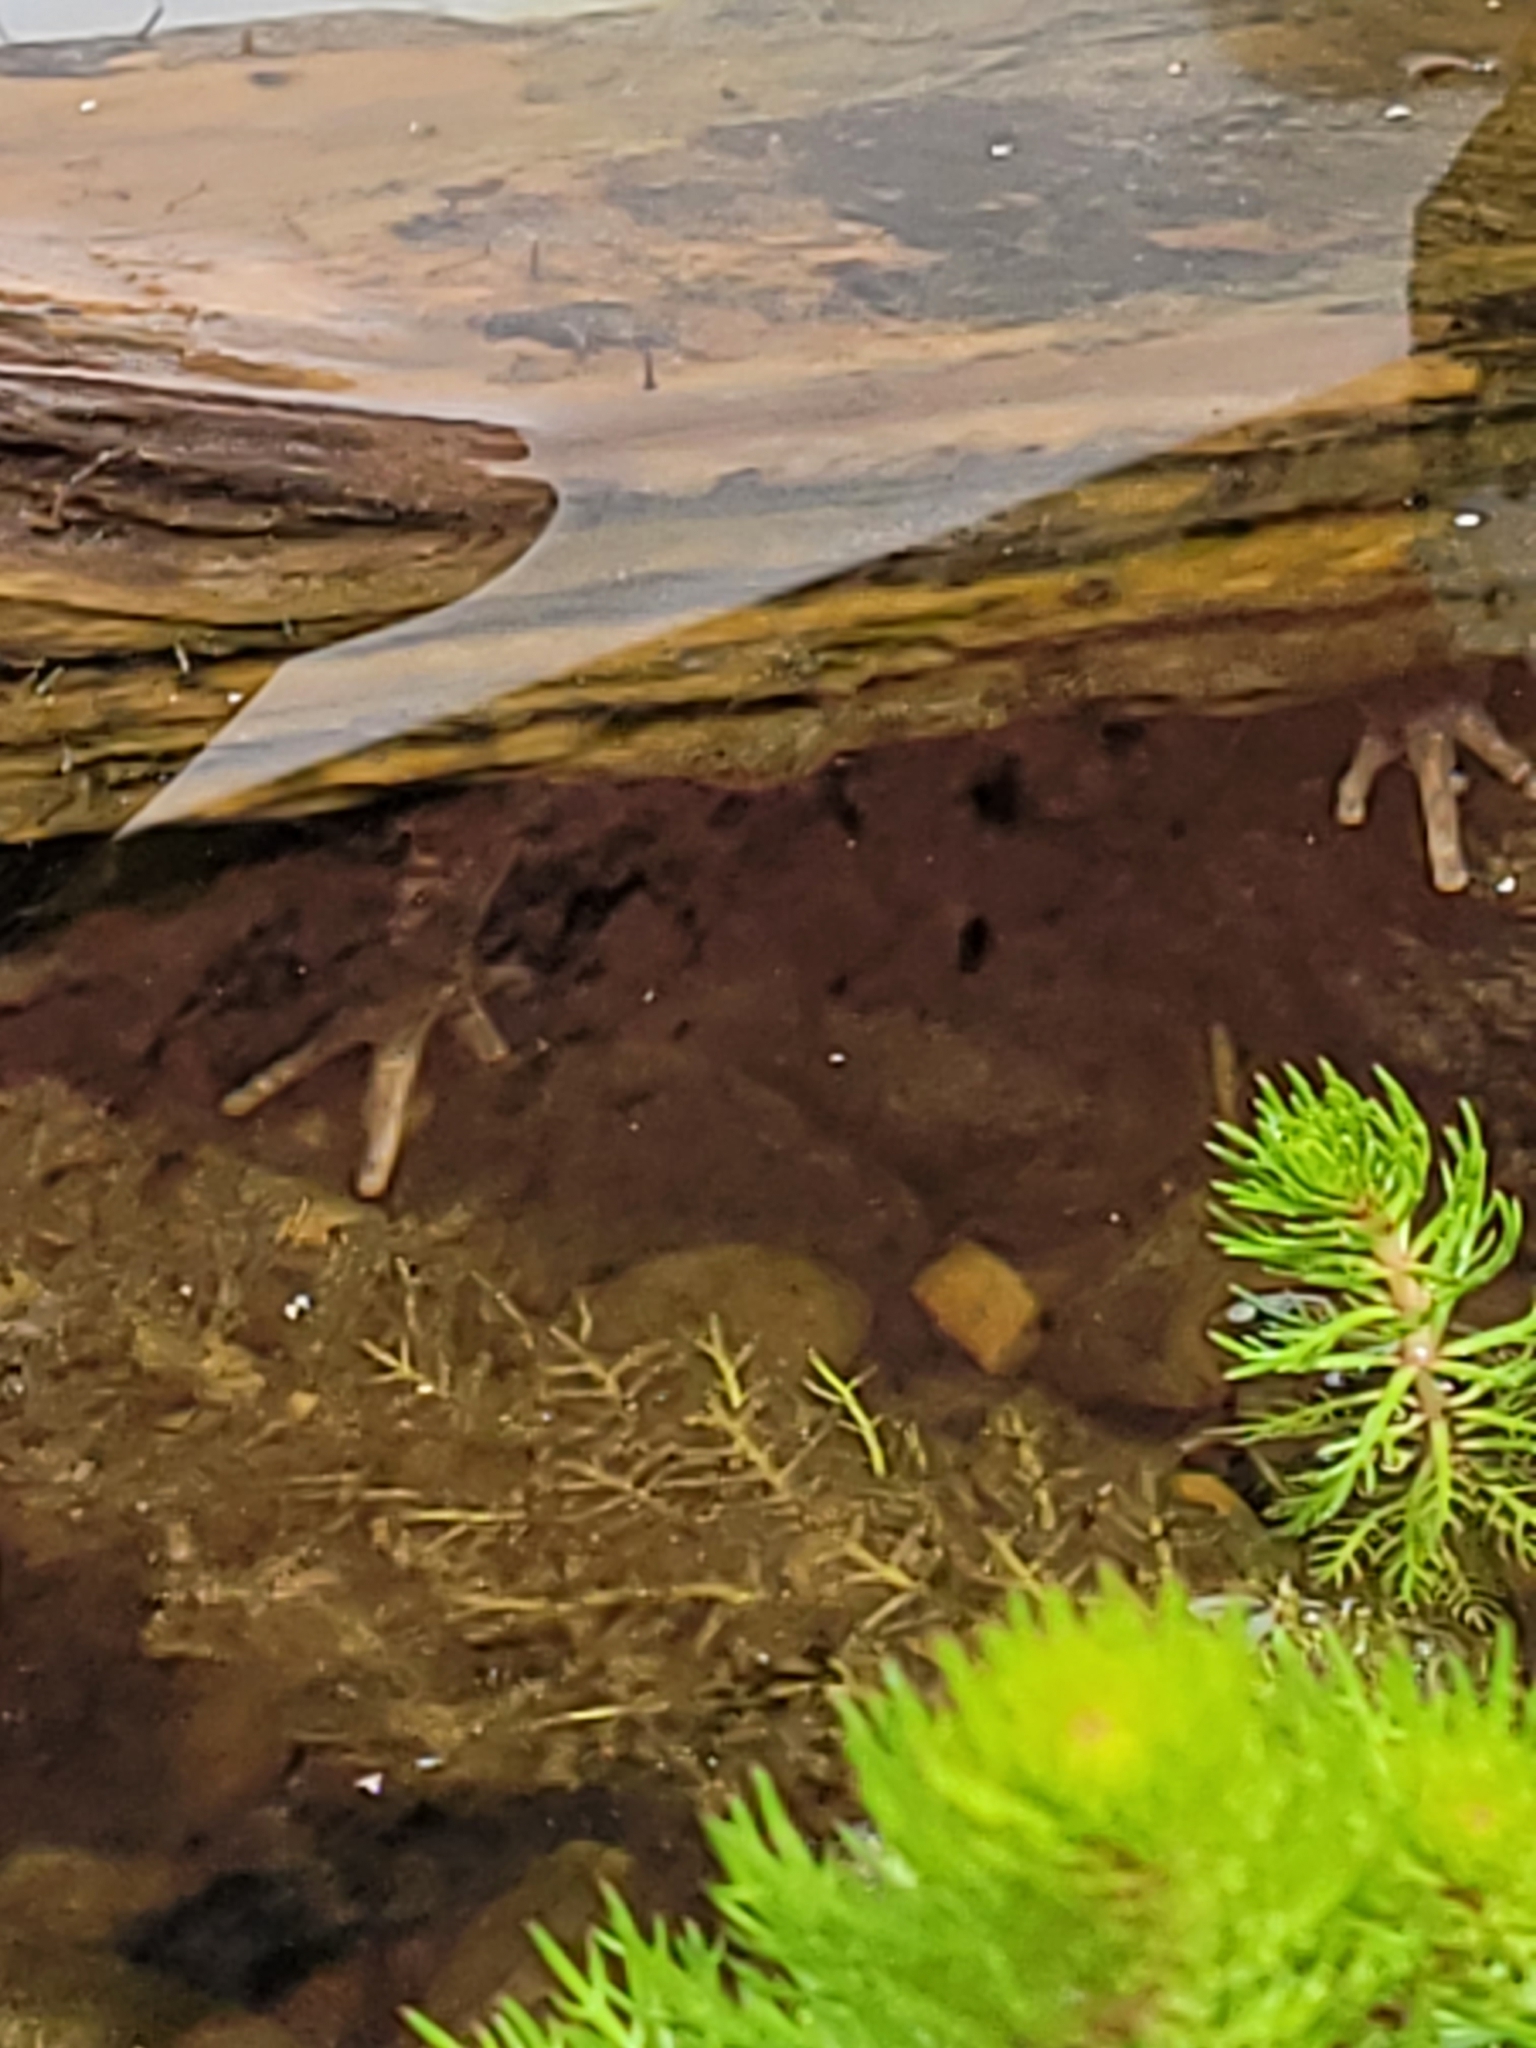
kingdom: Animalia
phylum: Chordata
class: Amphibia
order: Anura
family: Ranidae
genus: Rana
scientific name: Rana temporaria
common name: Common frog
